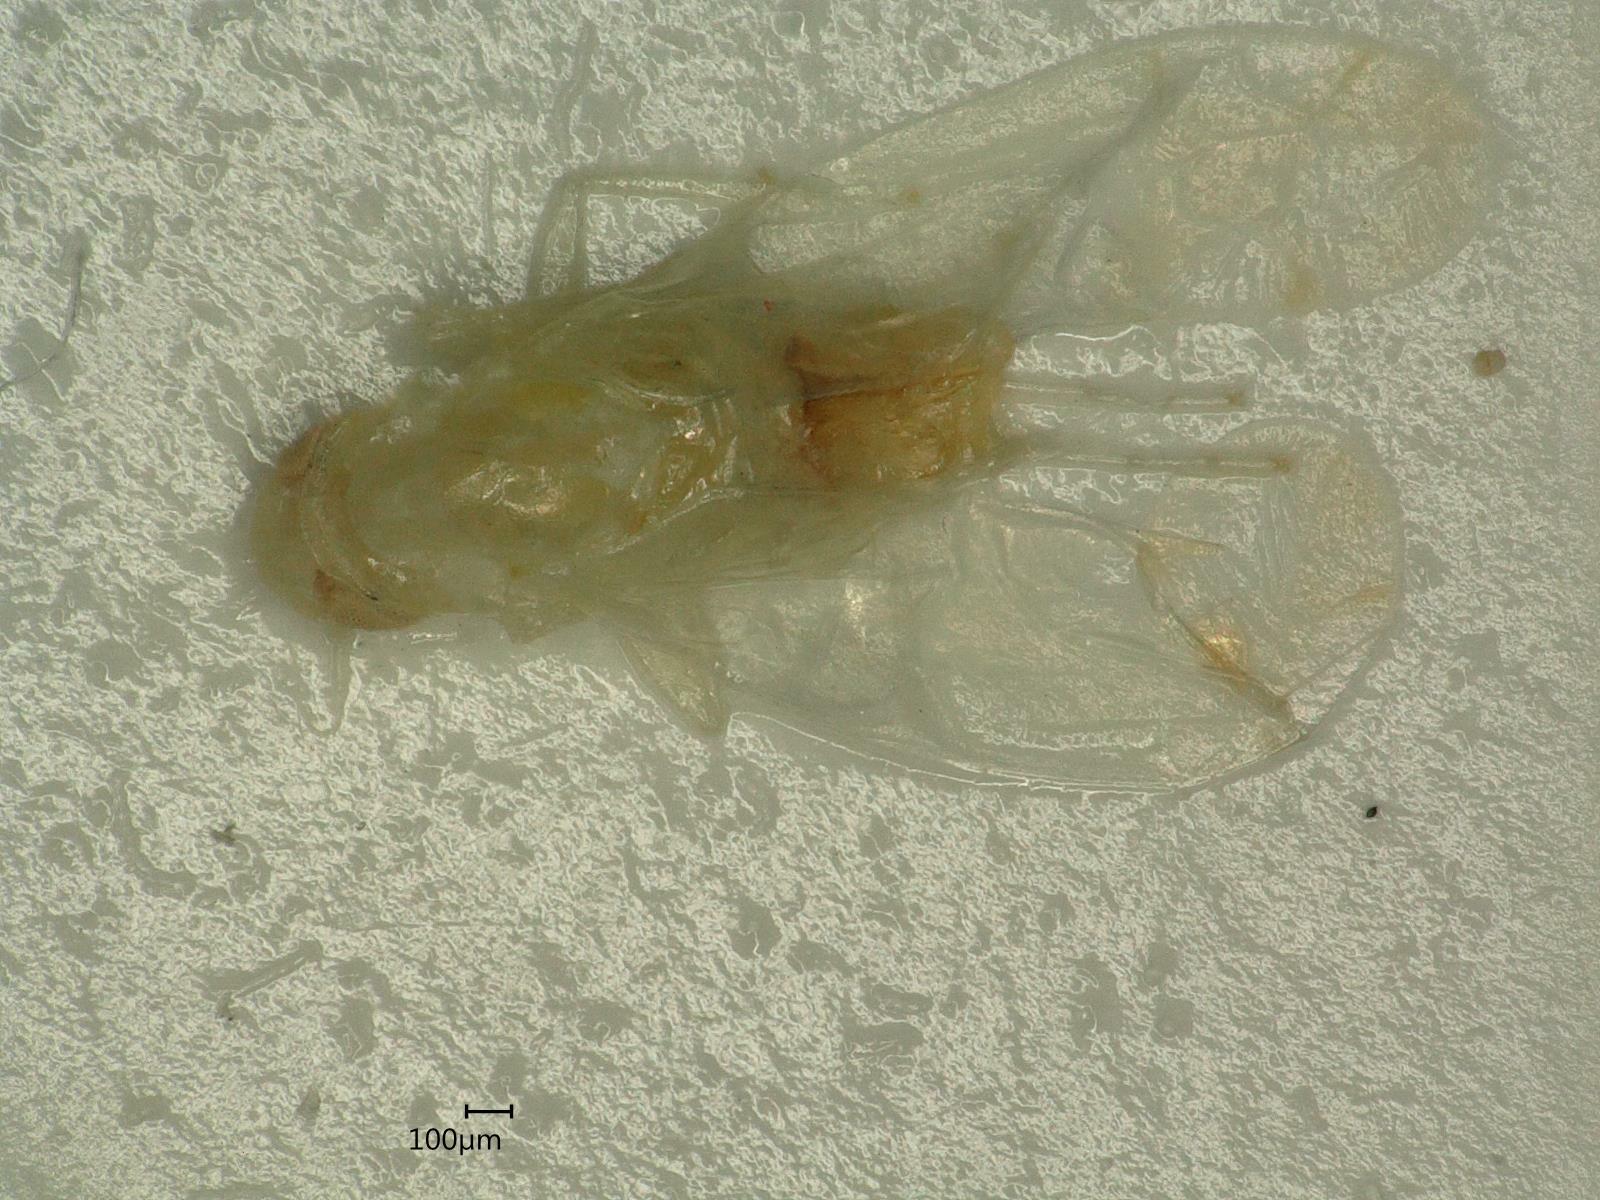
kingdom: Animalia
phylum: Arthropoda
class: Insecta
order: Hemiptera
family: Cicadellidae
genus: Ribautiana
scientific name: Ribautiana tenerrima
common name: Bramble leafhopper
